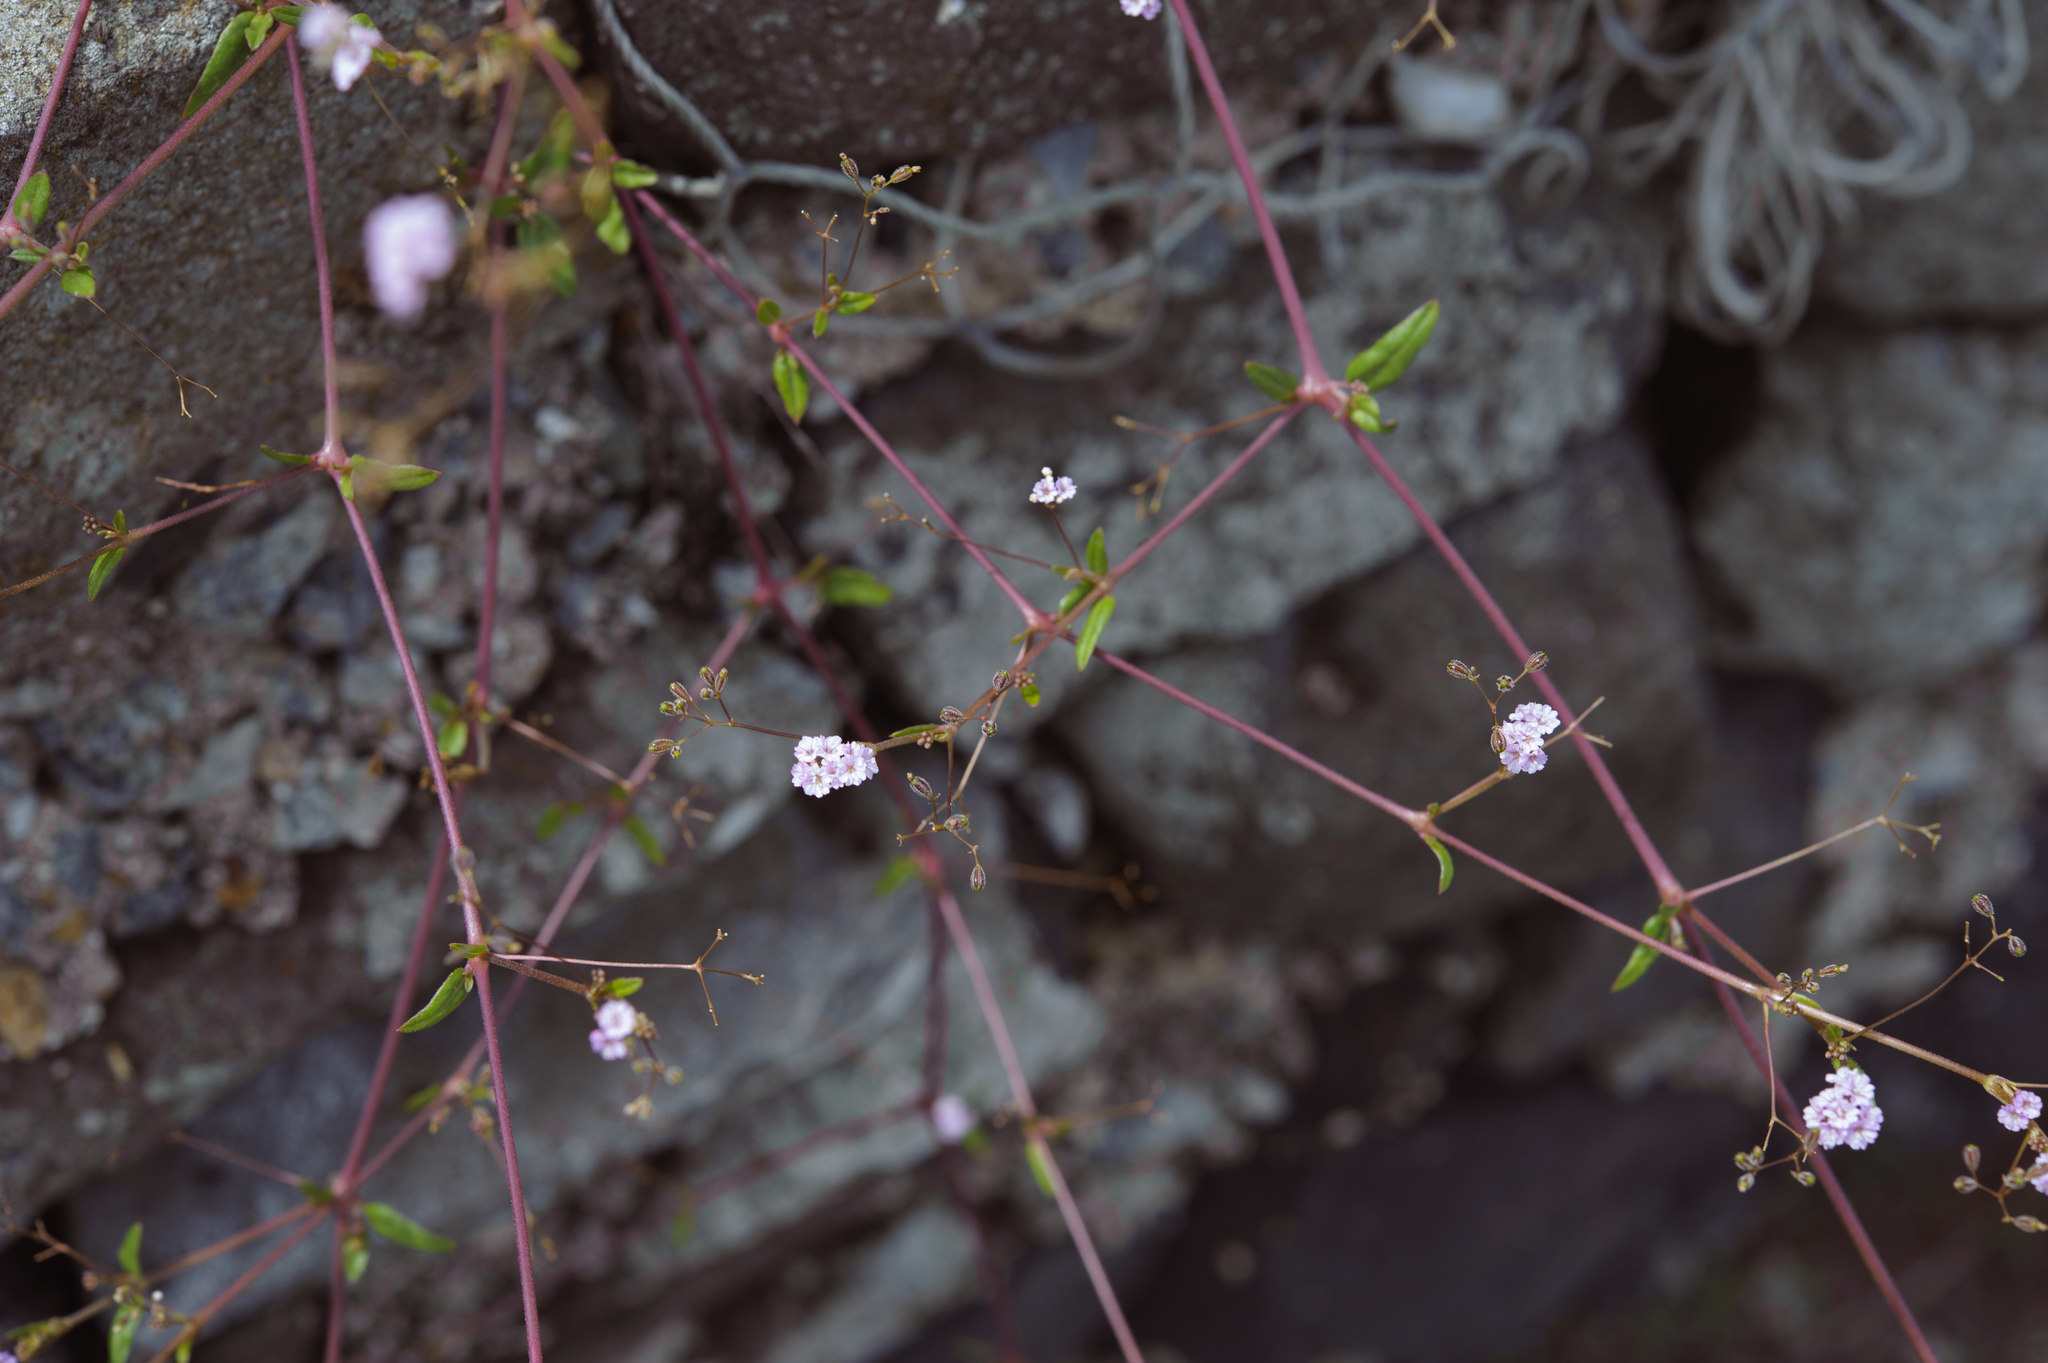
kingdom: Plantae
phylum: Tracheophyta
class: Magnoliopsida
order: Caryophyllales
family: Nyctaginaceae
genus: Boerhavia
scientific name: Boerhavia coccinea
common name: Scarlet spiderling
